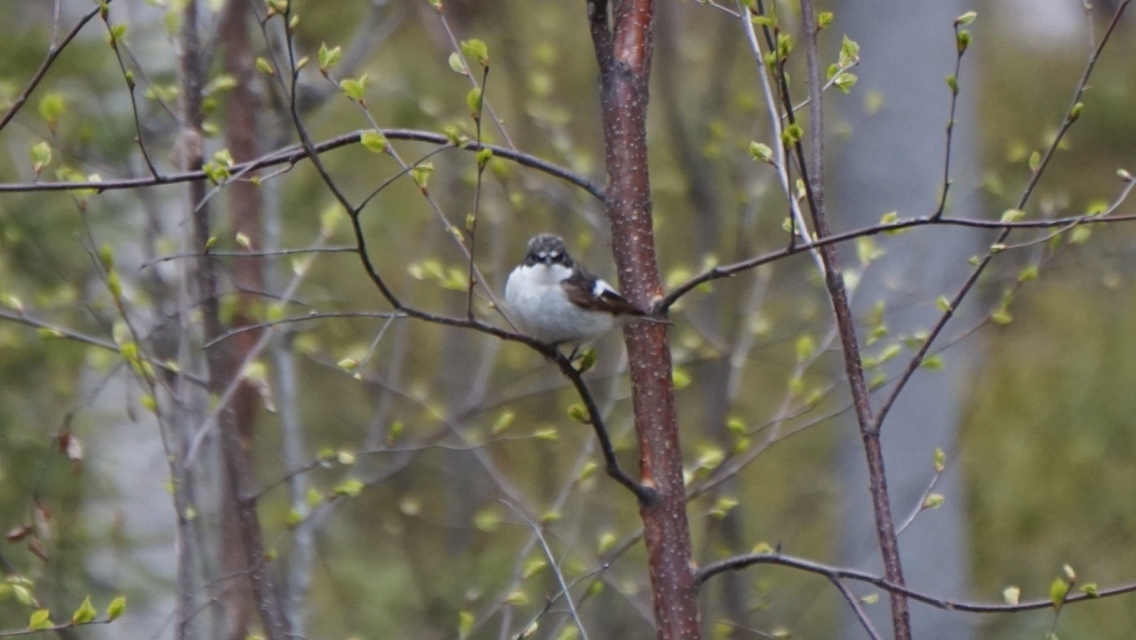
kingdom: Animalia
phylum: Chordata
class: Aves
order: Passeriformes
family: Muscicapidae
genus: Ficedula
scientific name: Ficedula hypoleuca
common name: European pied flycatcher
